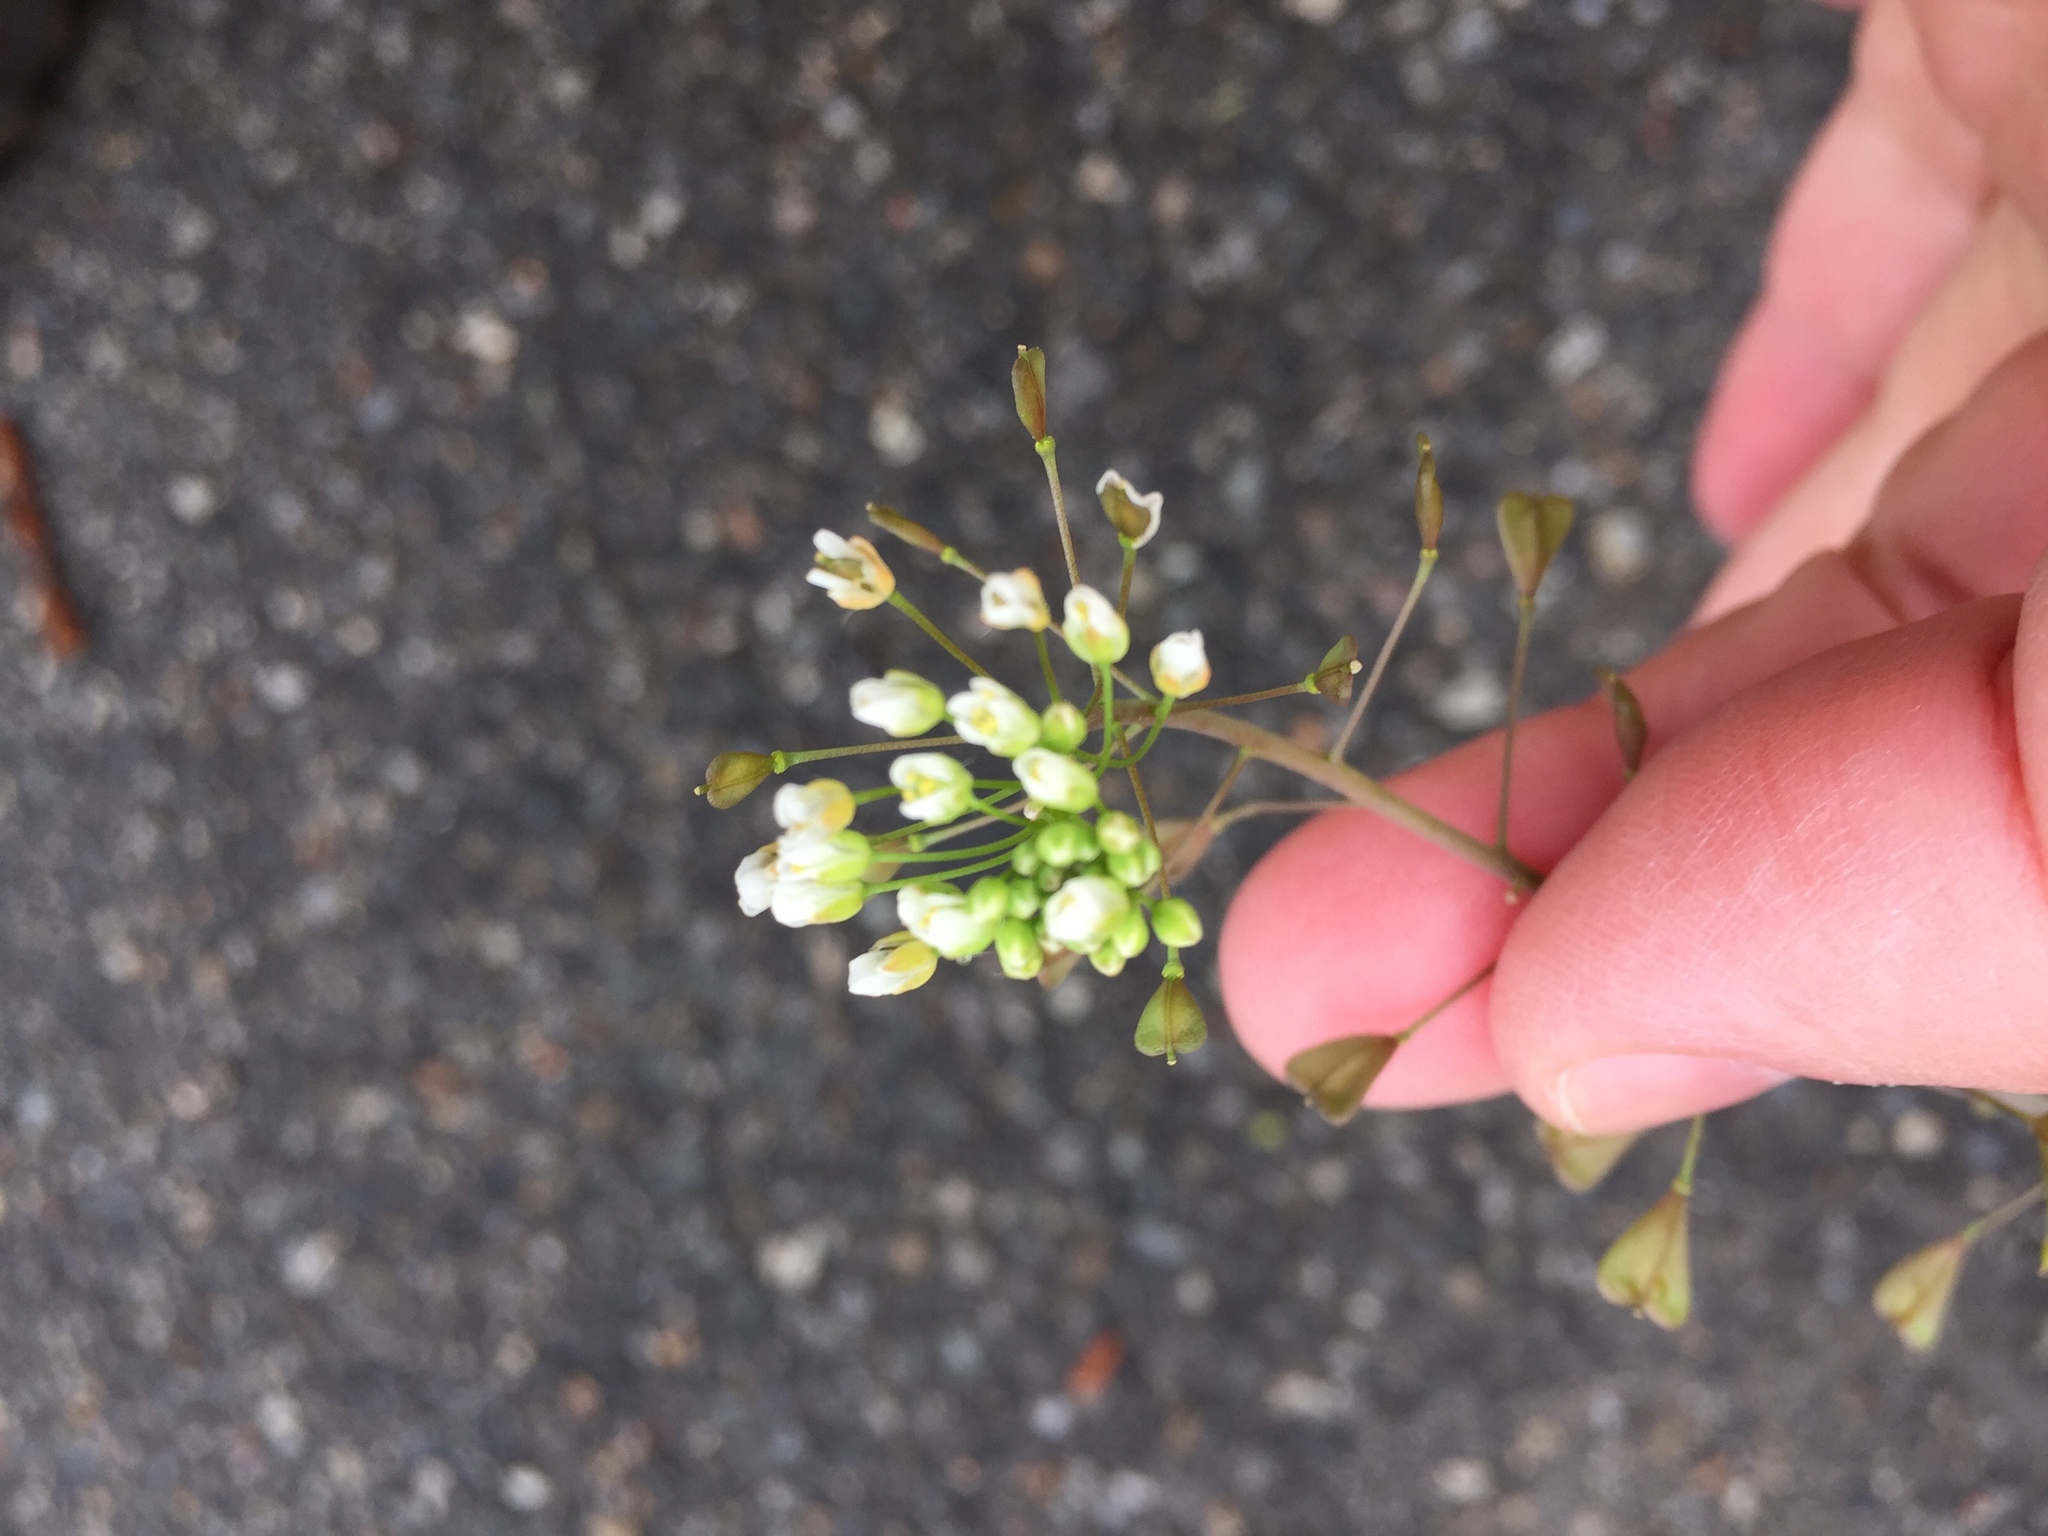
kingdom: Plantae
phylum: Tracheophyta
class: Magnoliopsida
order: Brassicales
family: Brassicaceae
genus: Capsella
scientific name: Capsella bursa-pastoris
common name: Shepherd's purse
